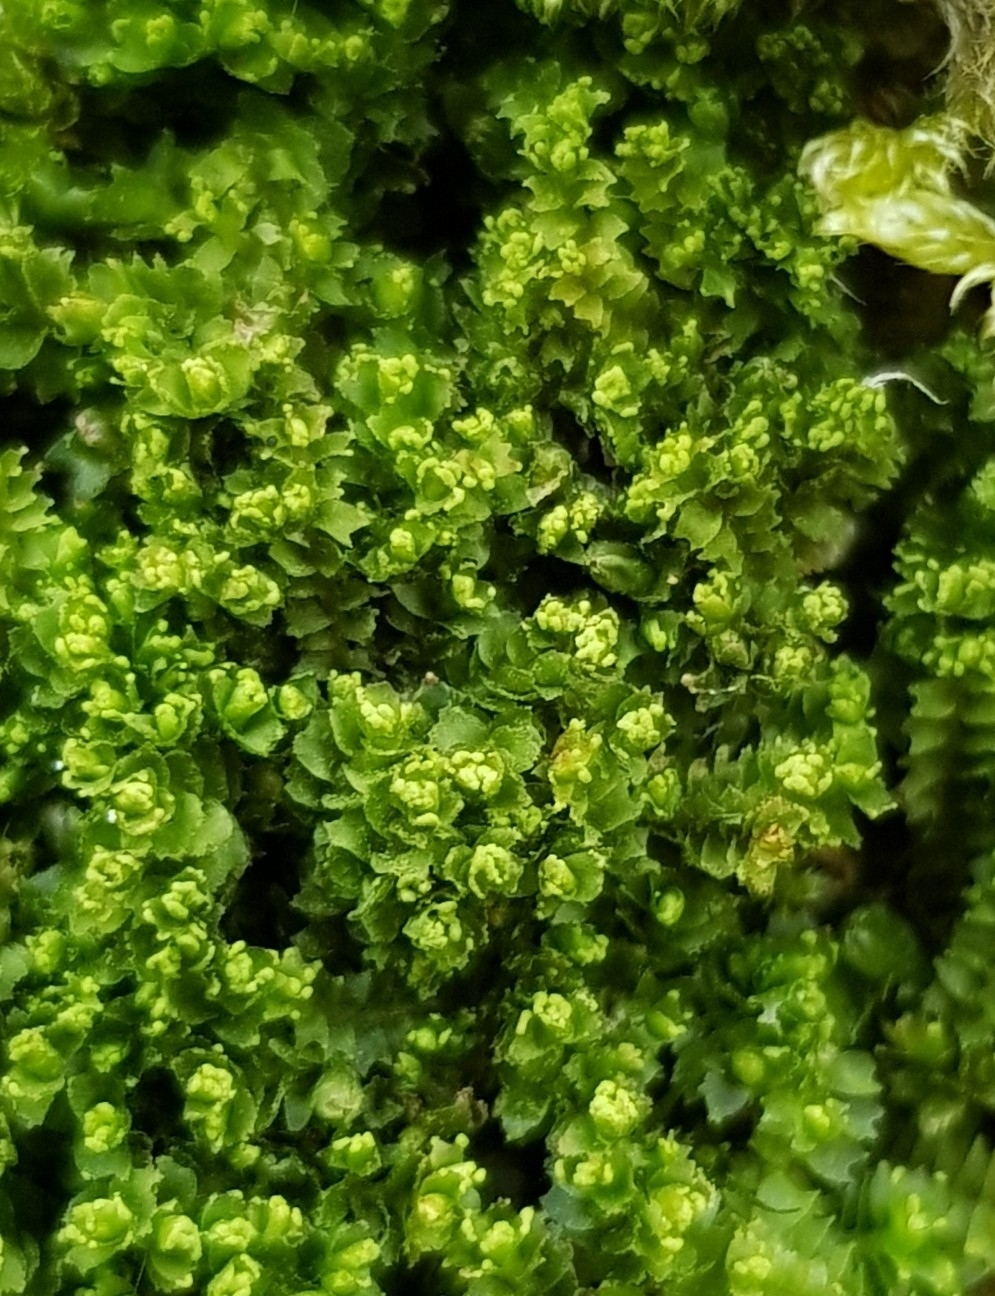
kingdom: Plantae
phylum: Marchantiophyta
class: Jungermanniopsida
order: Jungermanniales
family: Lophoziaceae
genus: Lophozia
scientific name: Lophozia ventricosa
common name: Tumid notchwort
